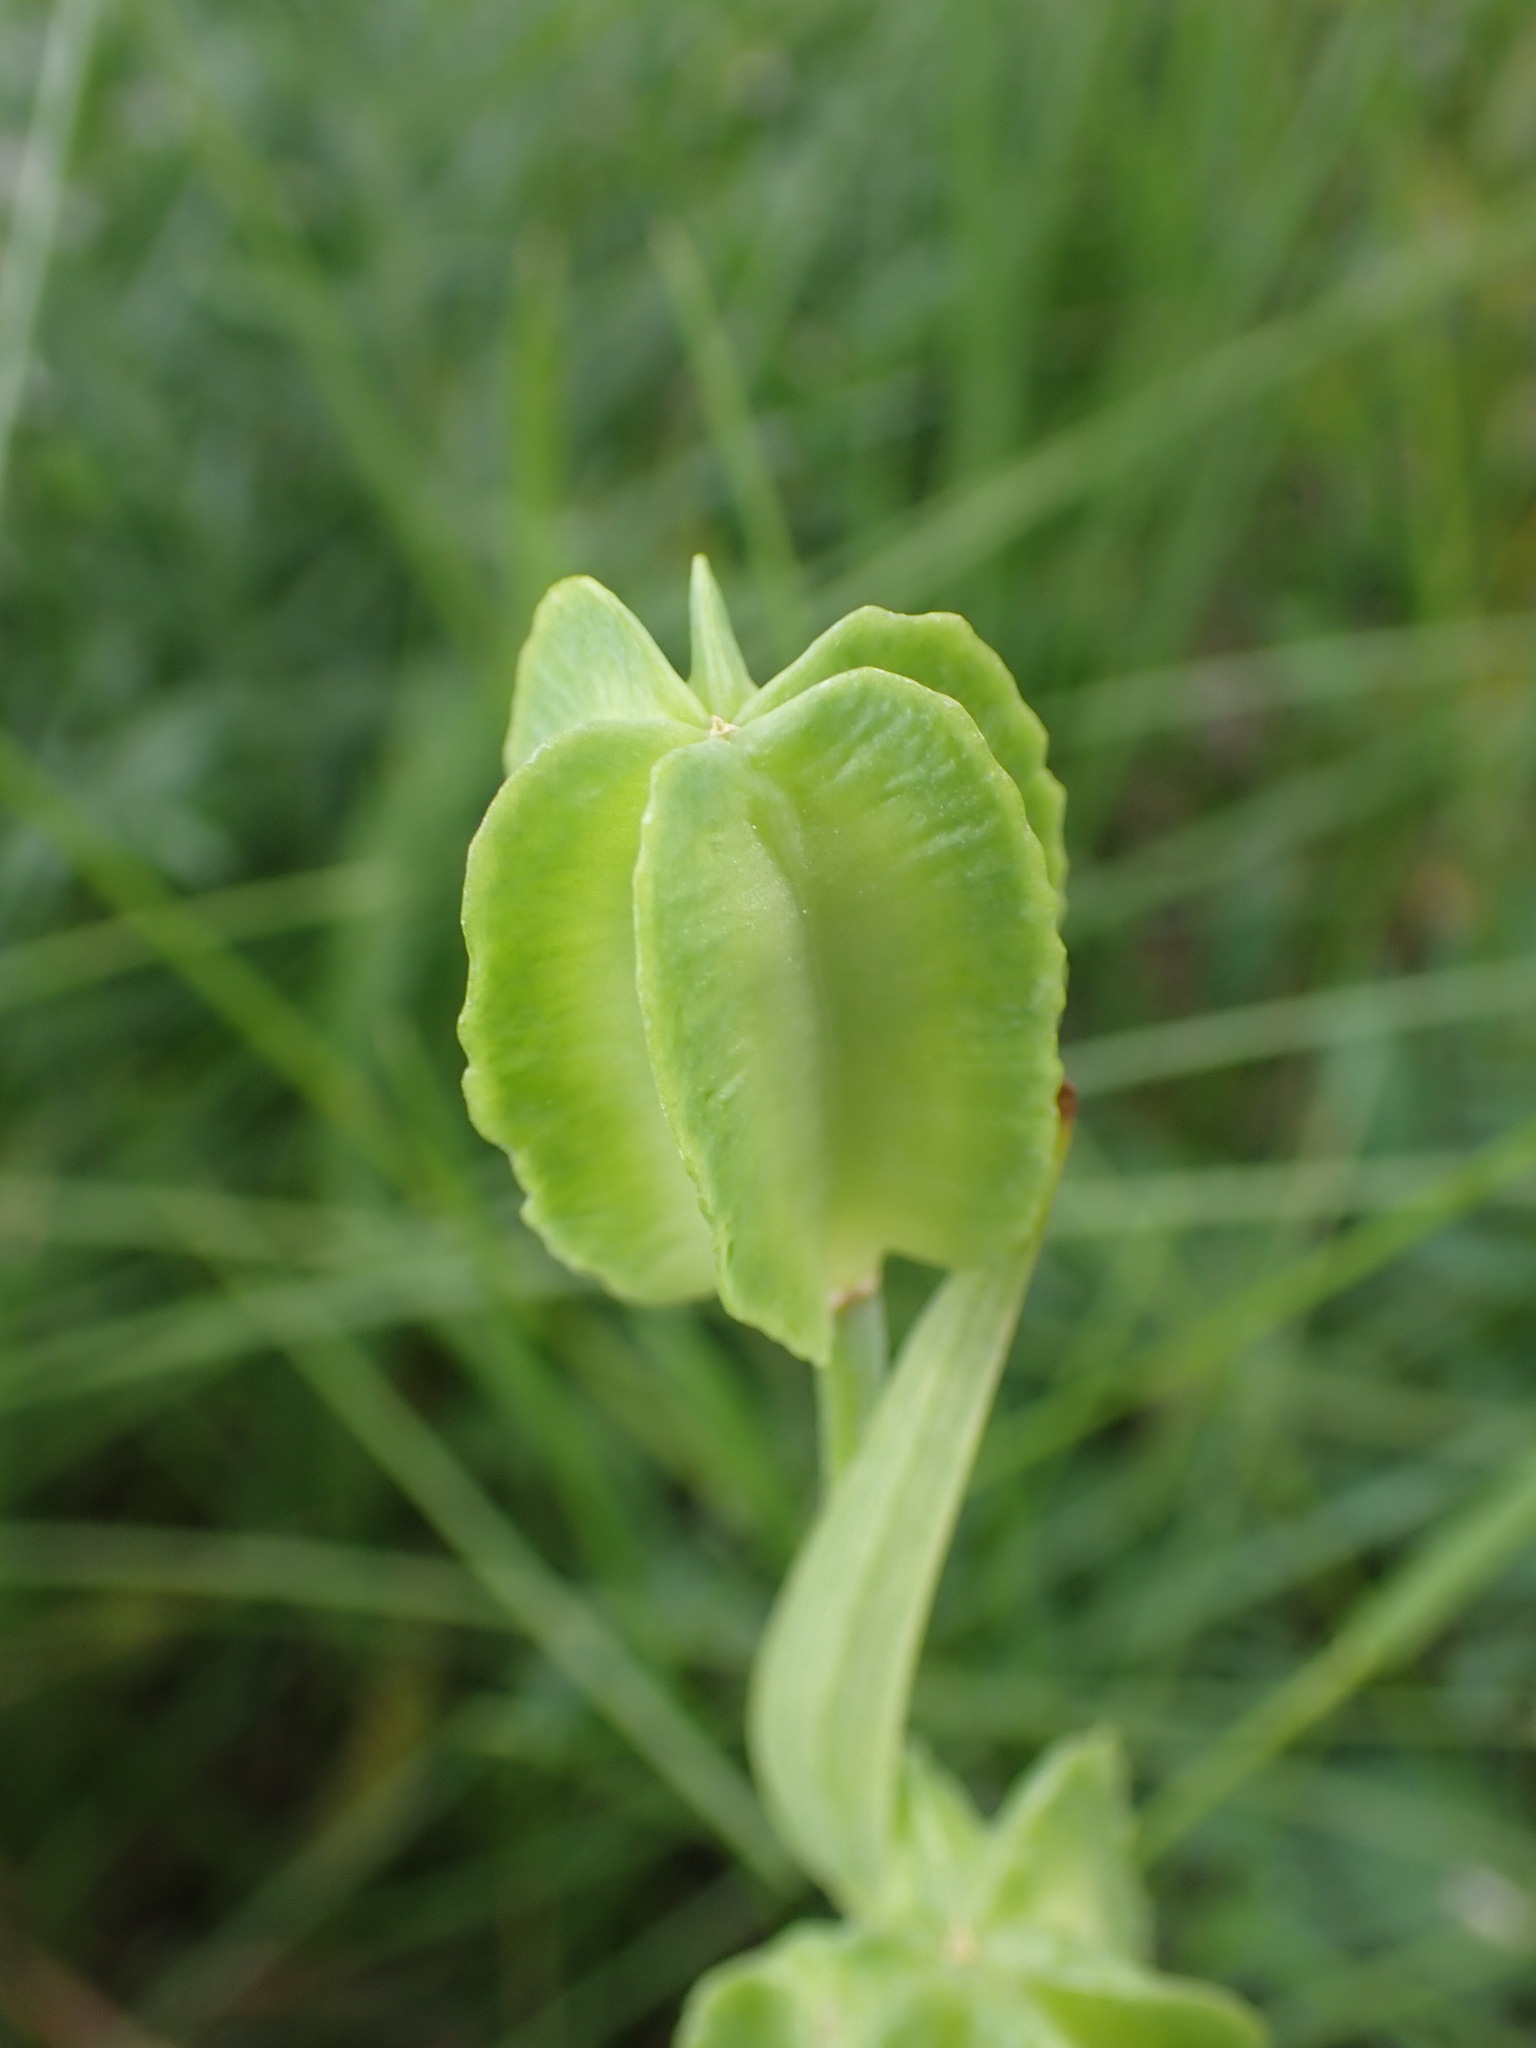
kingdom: Plantae
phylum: Tracheophyta
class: Liliopsida
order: Liliales
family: Liliaceae
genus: Fritillaria
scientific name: Fritillaria affinis
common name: Ojai fritillary
